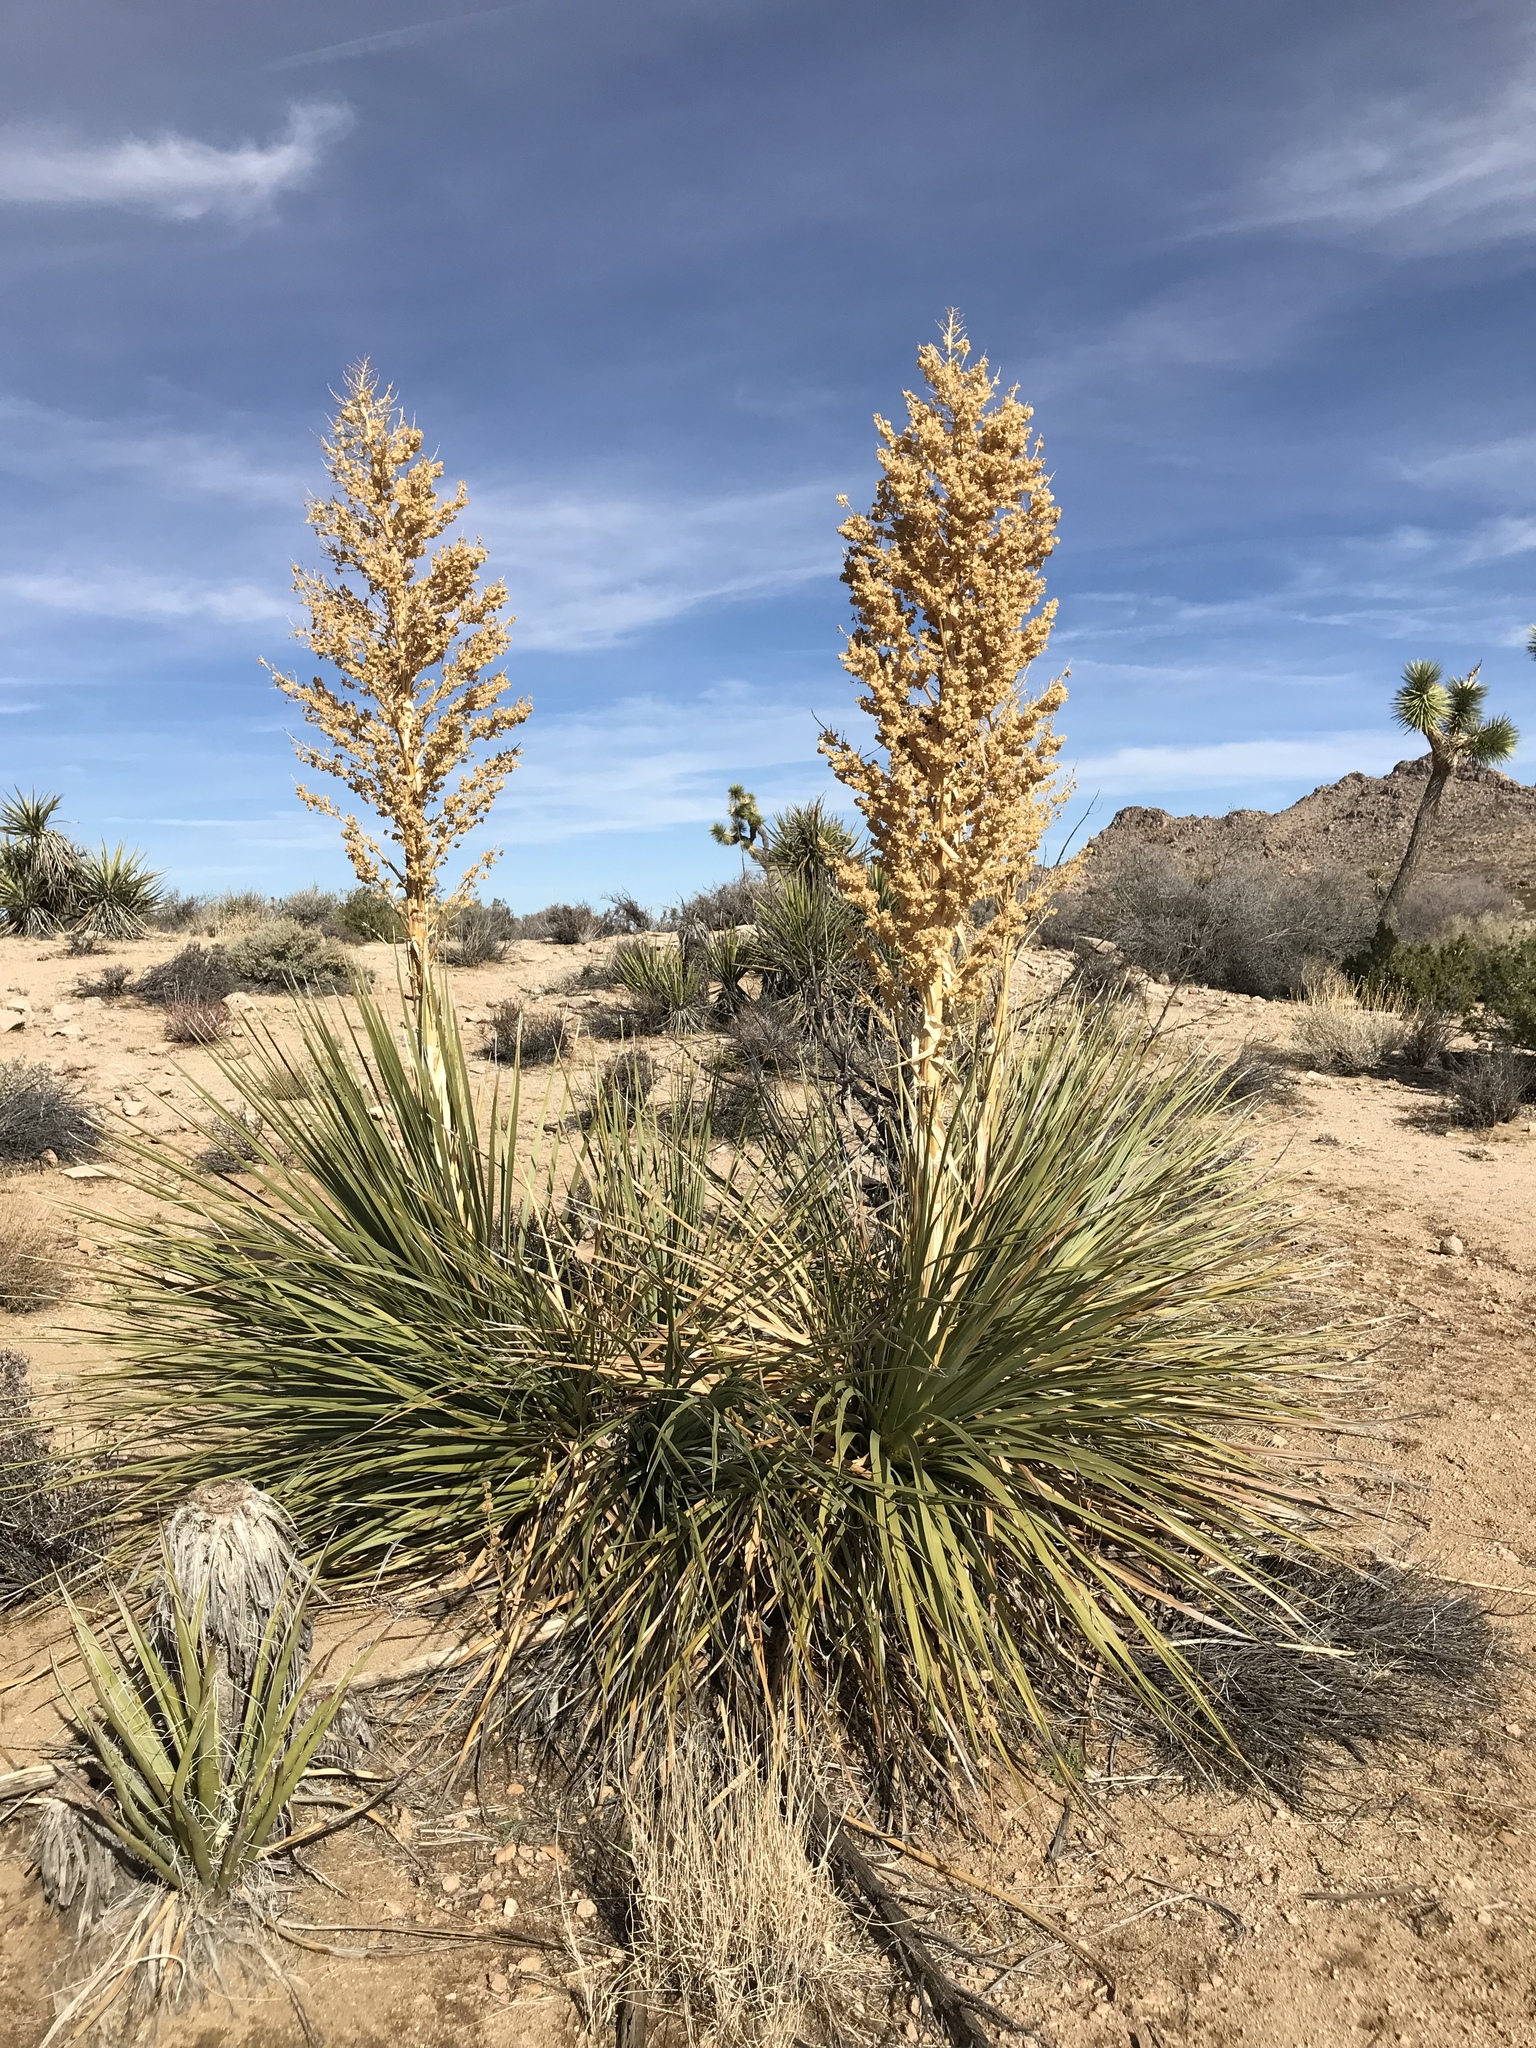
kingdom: Plantae
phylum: Tracheophyta
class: Liliopsida
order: Asparagales
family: Asparagaceae
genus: Nolina
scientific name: Nolina parryi
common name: Parry nolina
